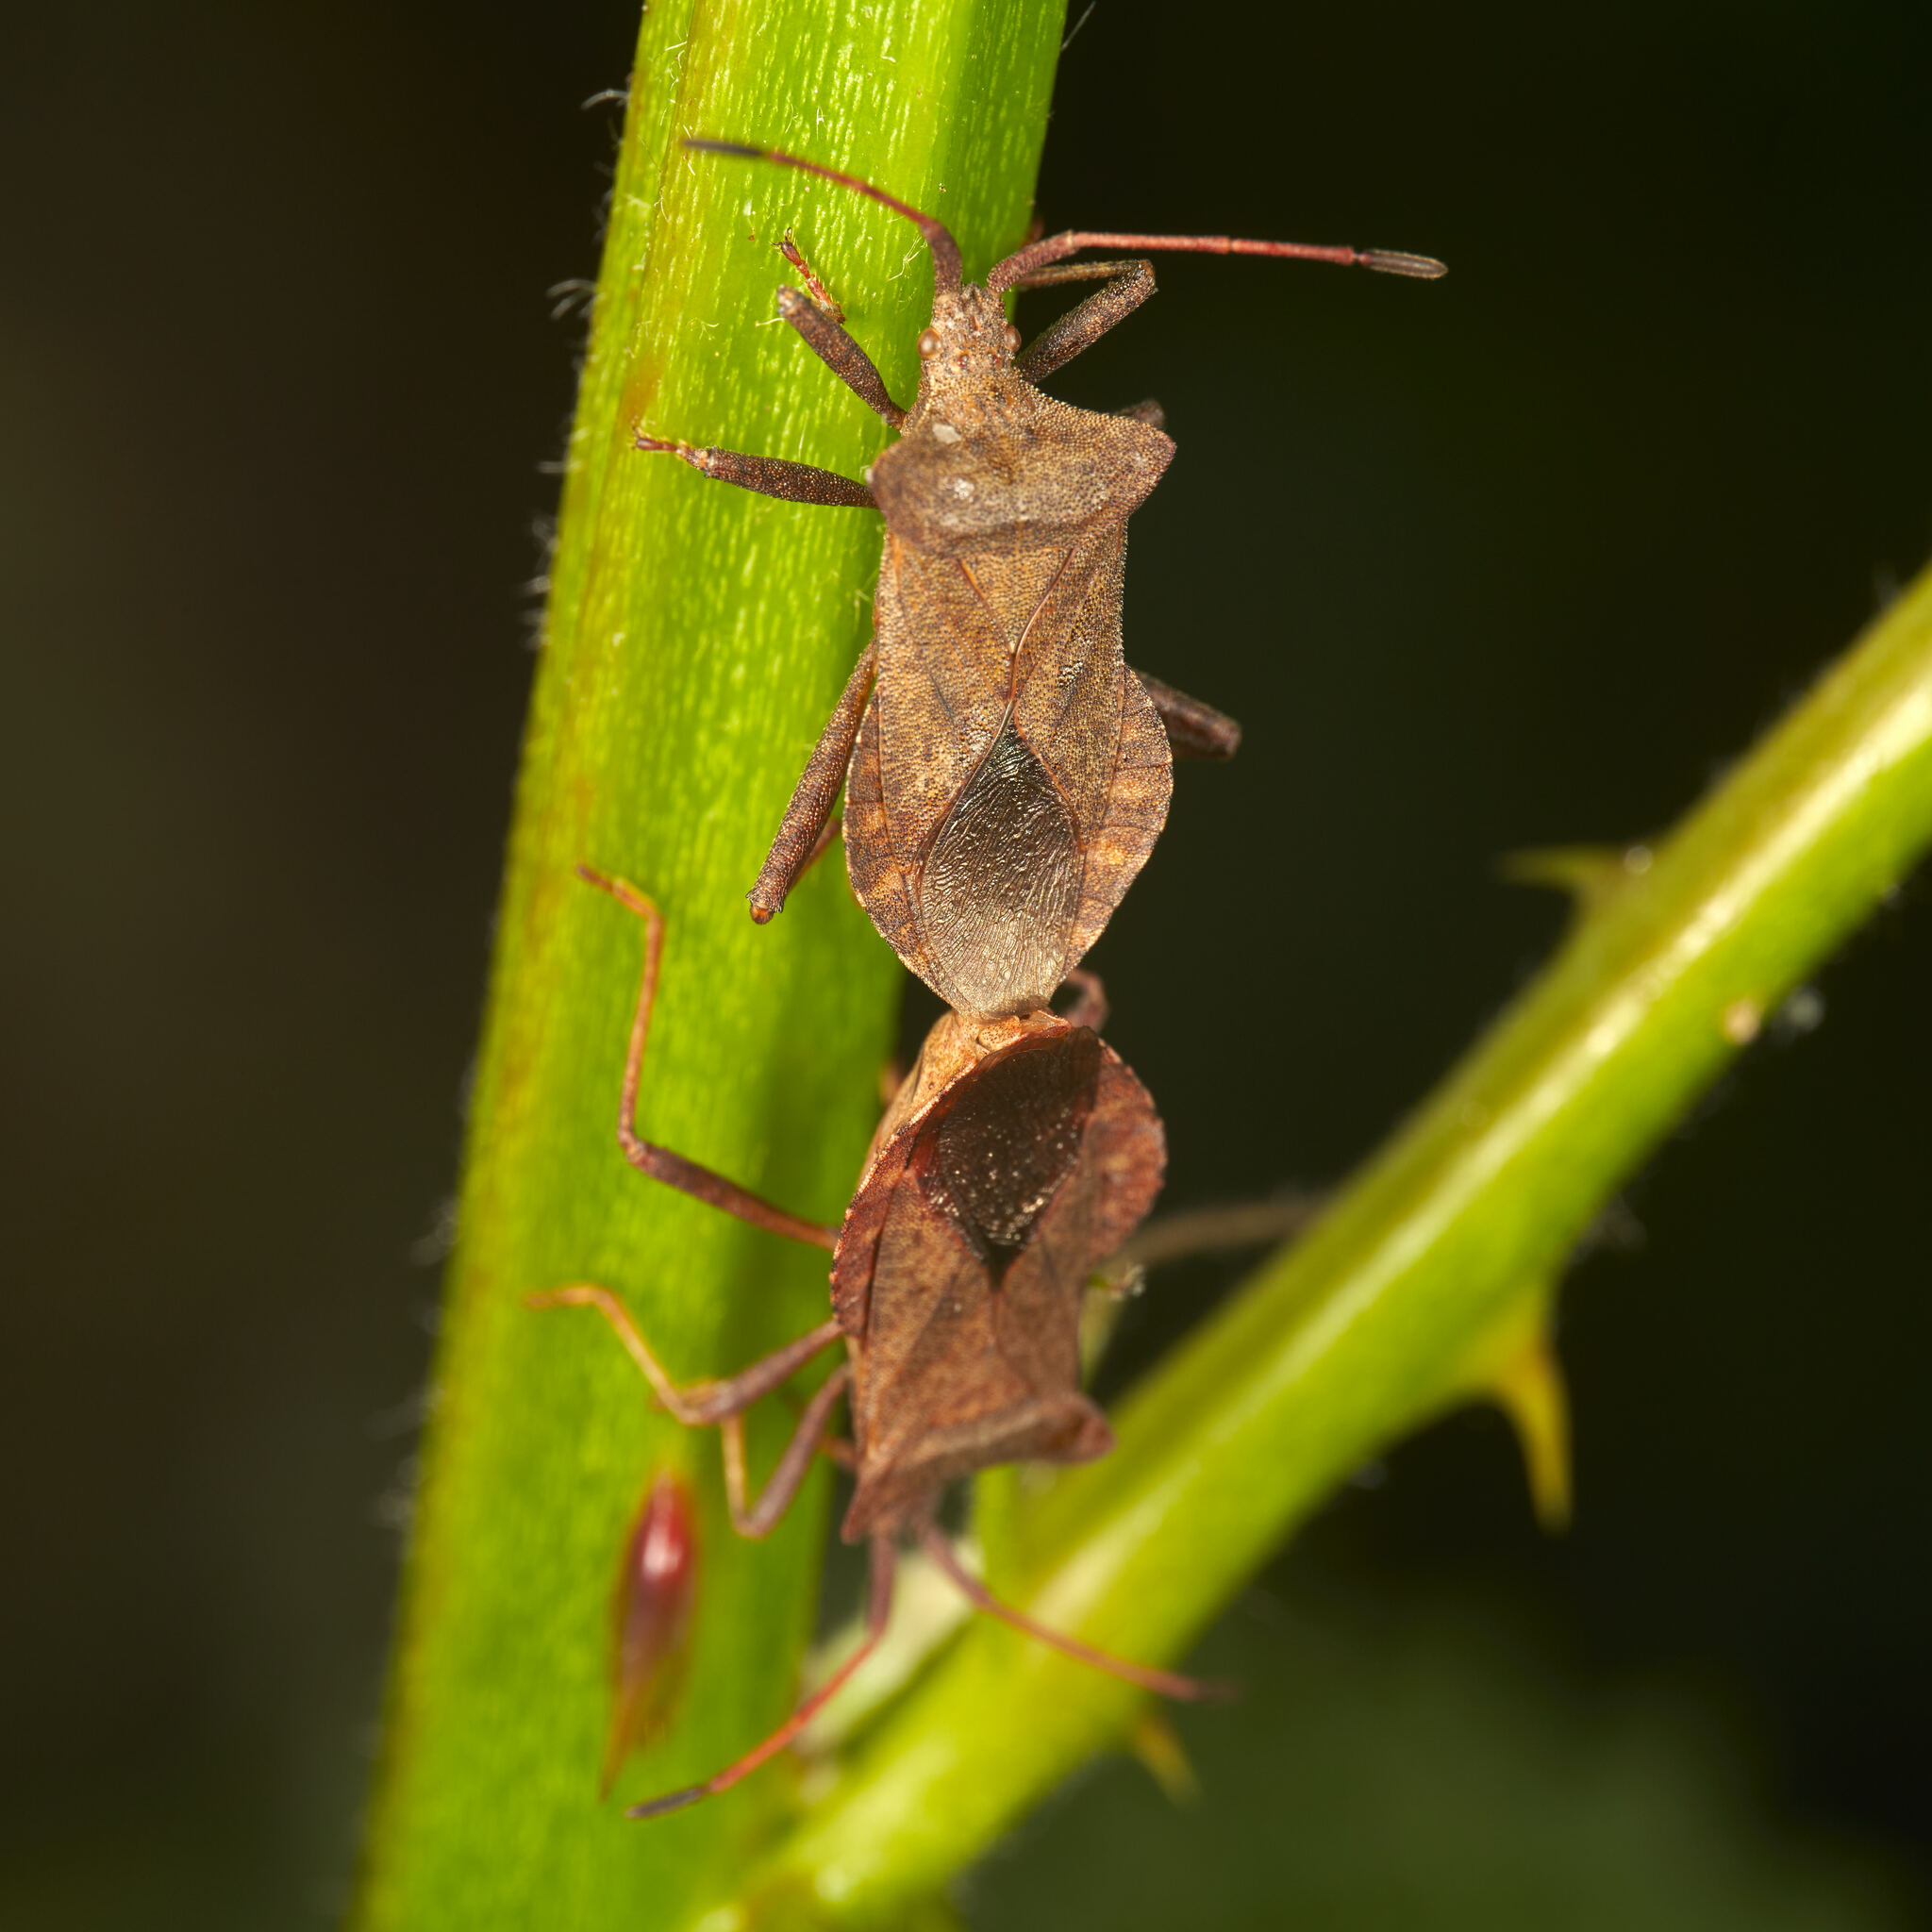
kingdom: Animalia
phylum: Arthropoda
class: Insecta
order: Hemiptera
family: Coreidae
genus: Coreus
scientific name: Coreus marginatus
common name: Dock bug
